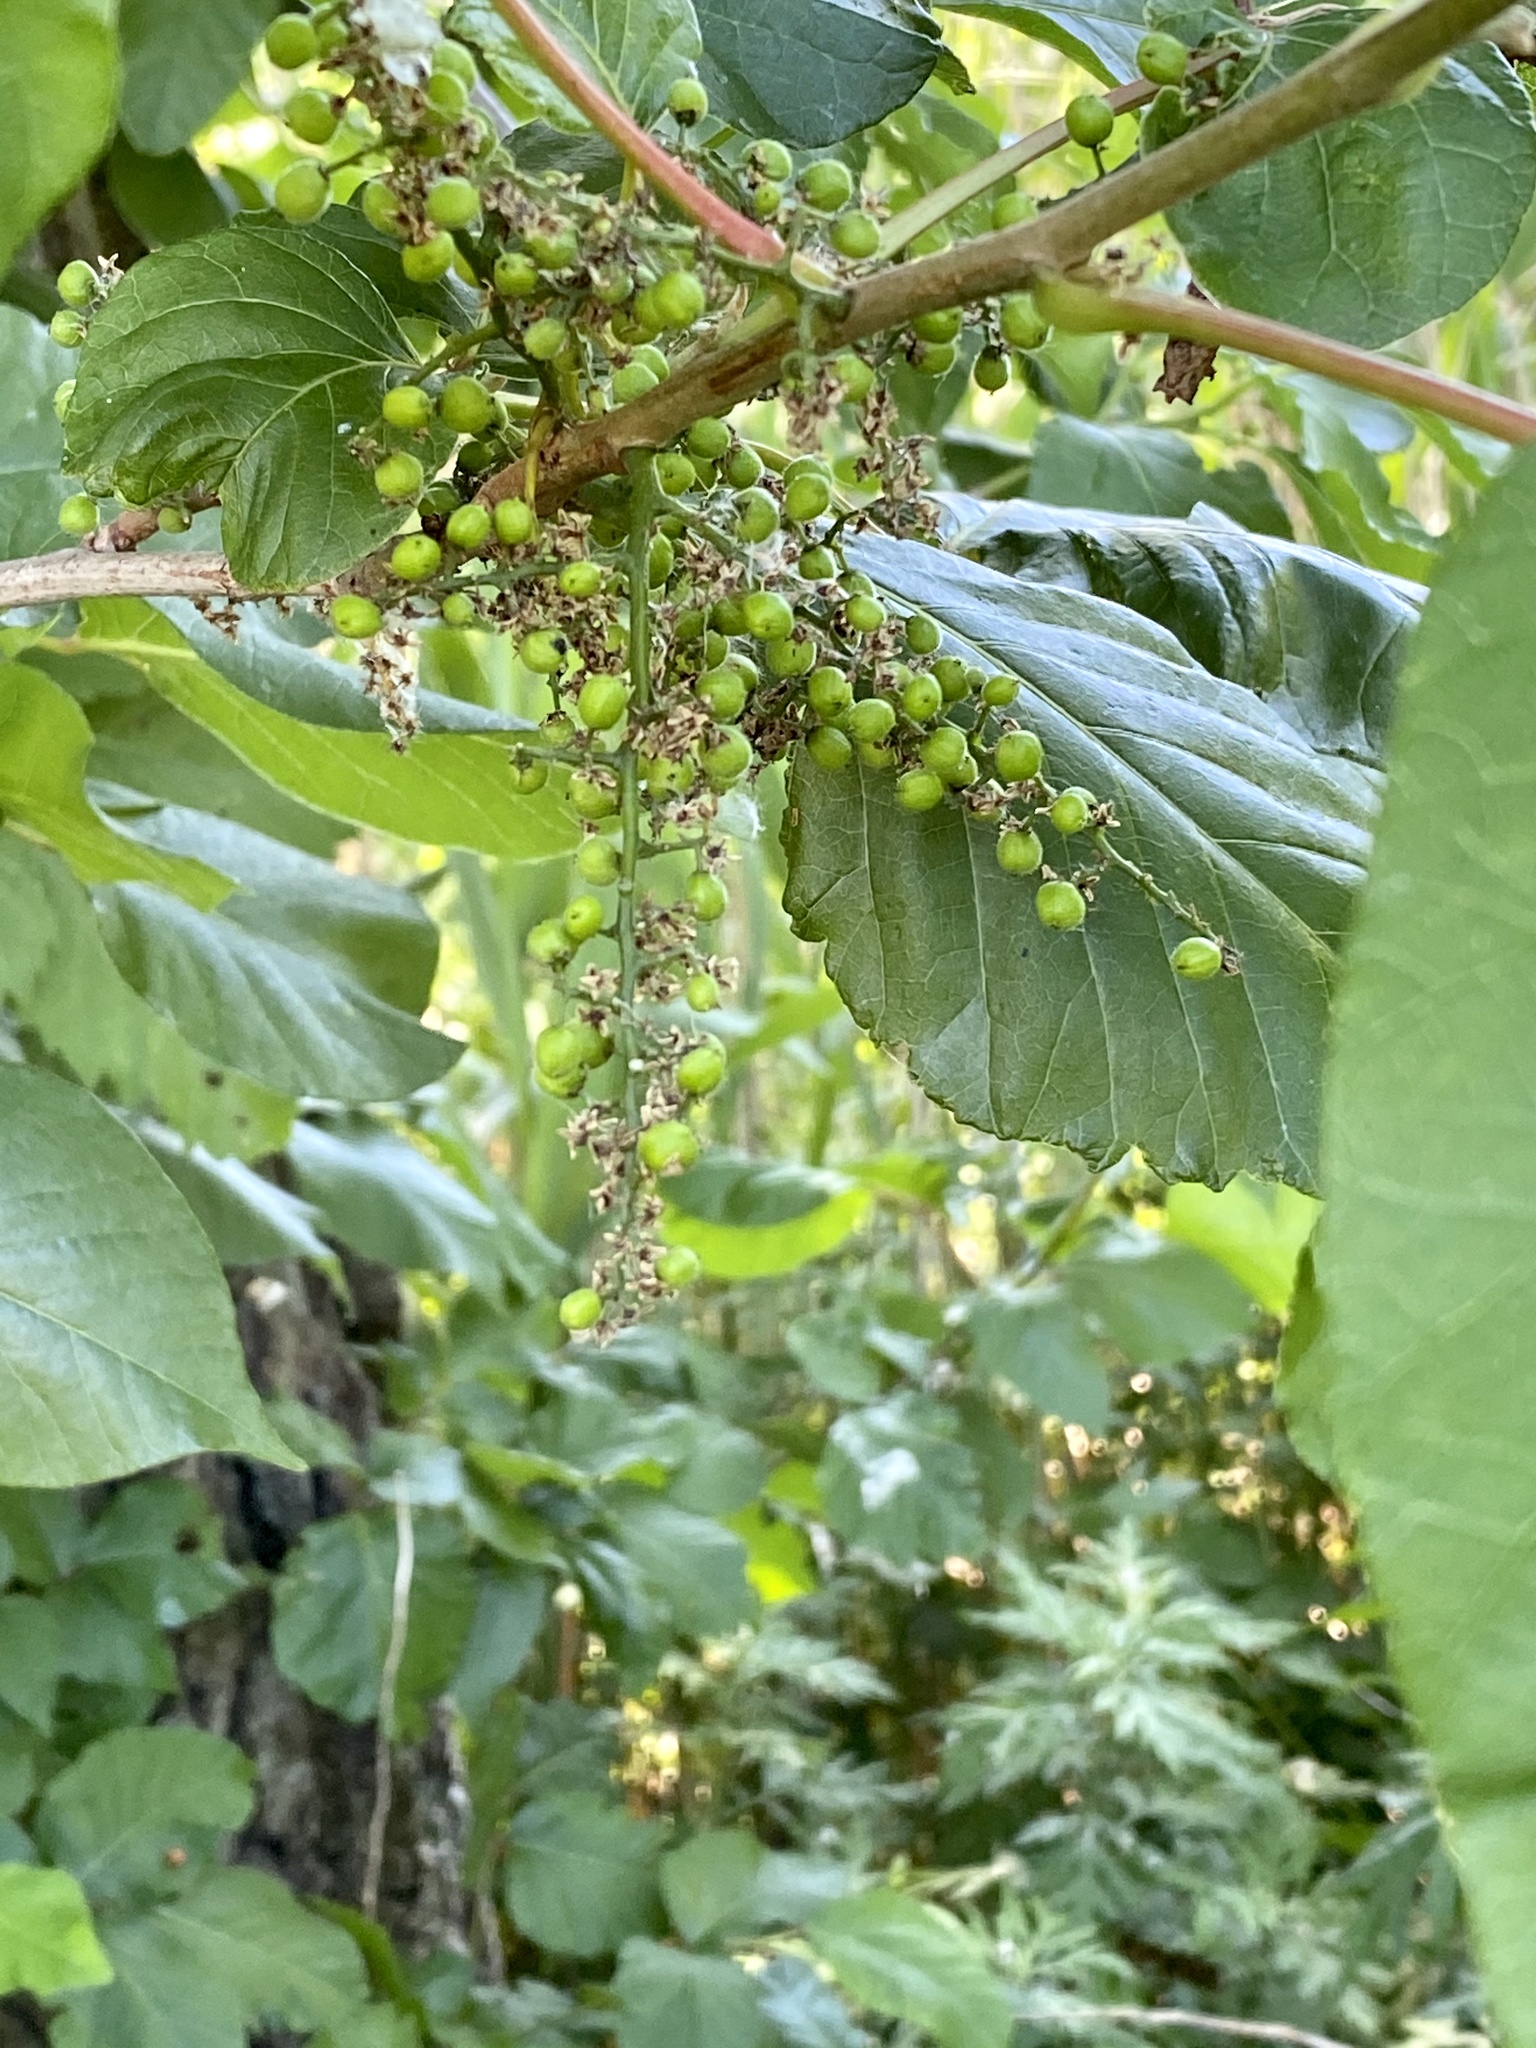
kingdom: Plantae
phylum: Tracheophyta
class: Magnoliopsida
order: Sapindales
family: Anacardiaceae
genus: Toxicodendron
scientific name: Toxicodendron radicans
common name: Poison ivy
